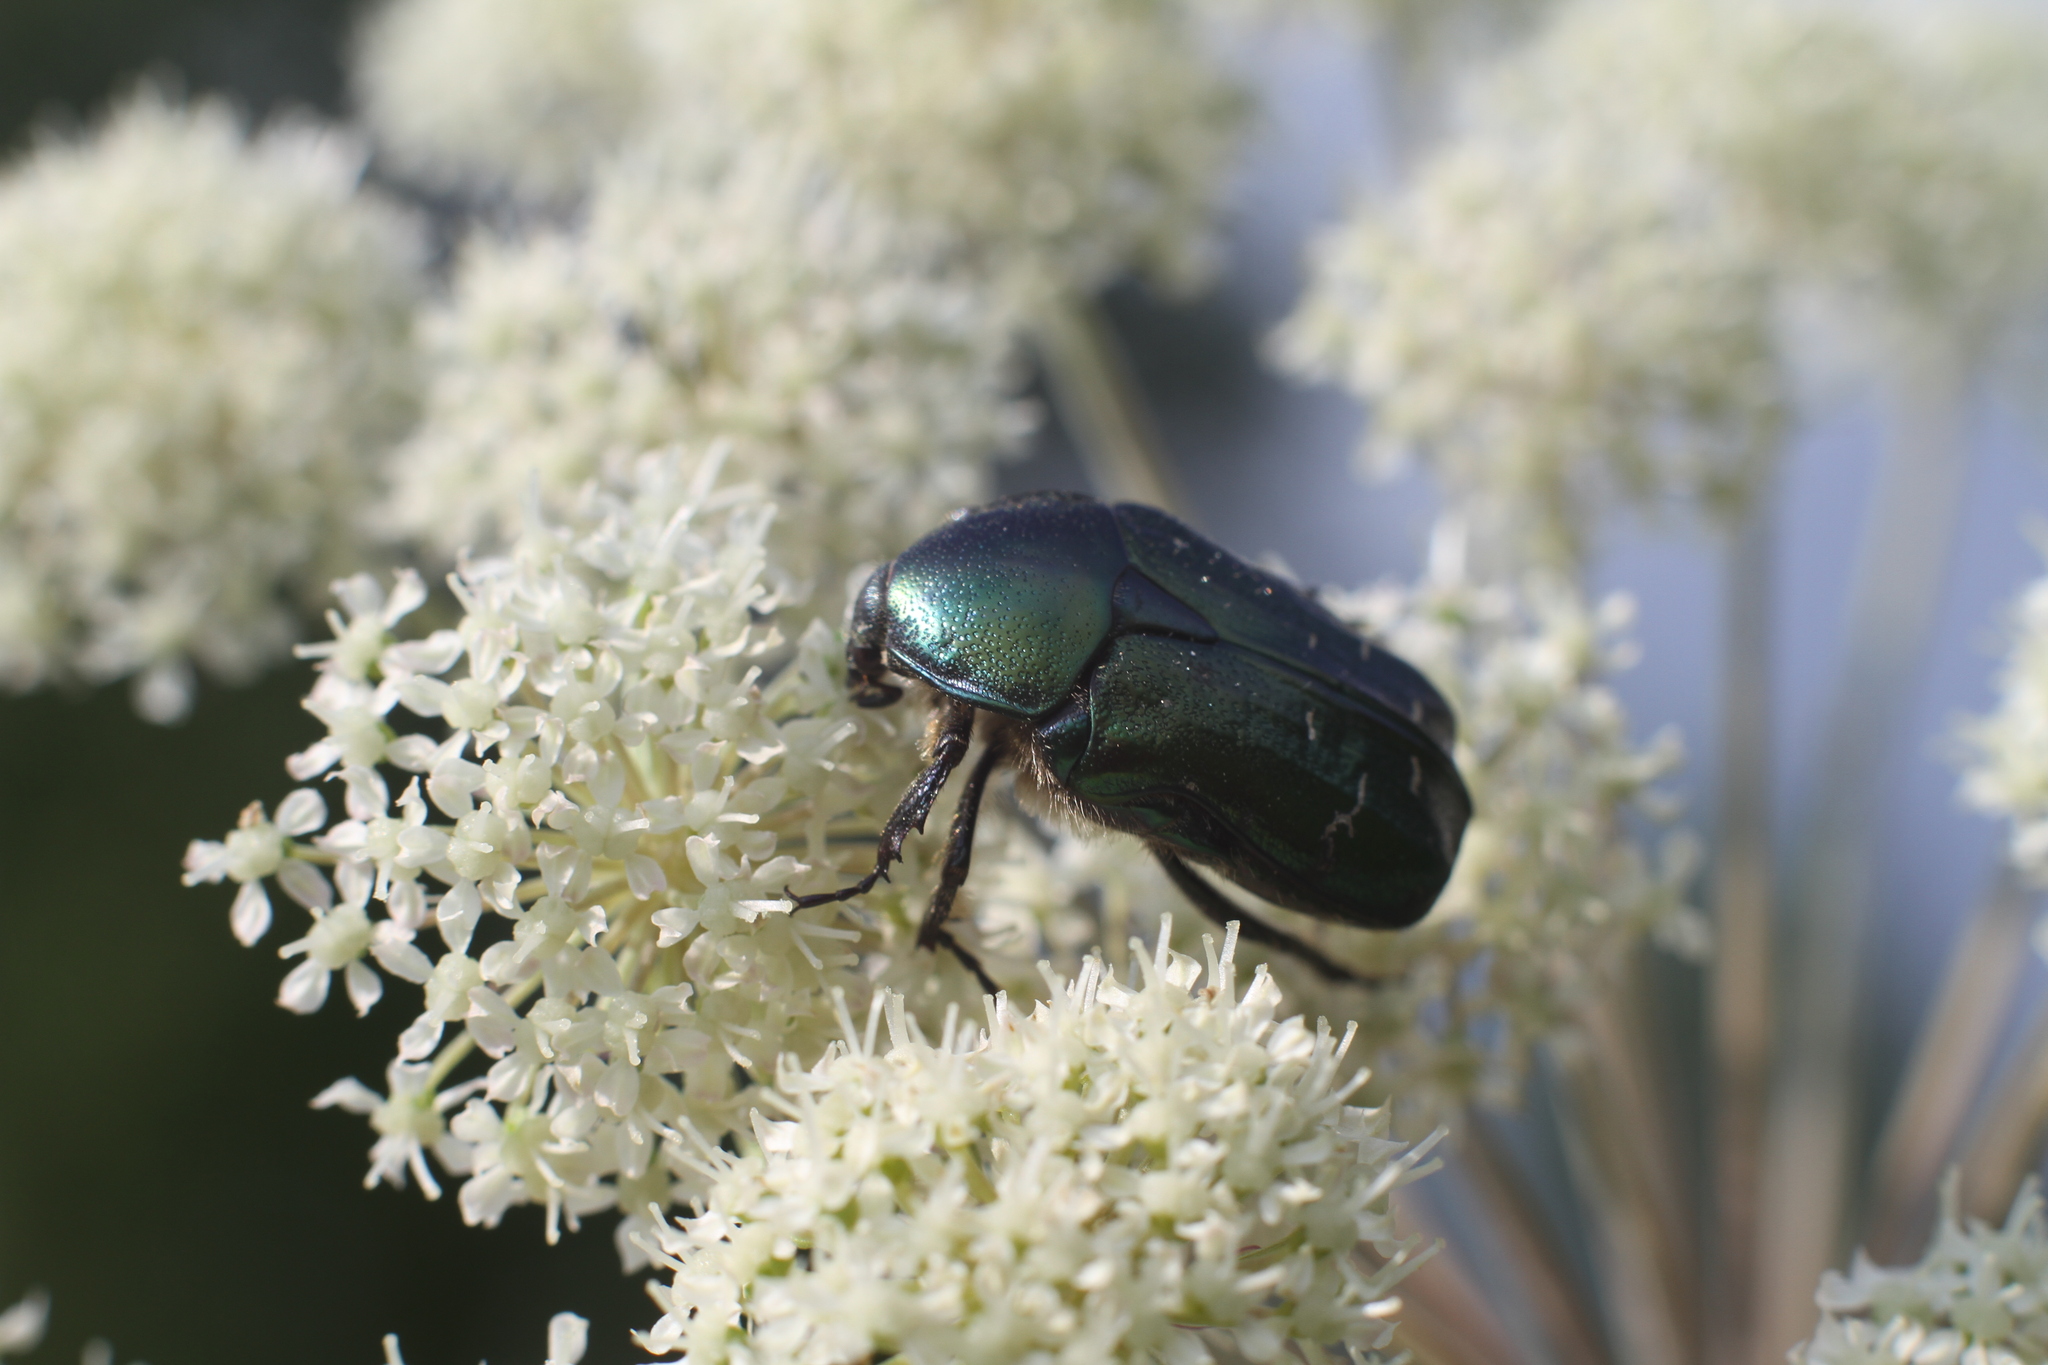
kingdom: Animalia
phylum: Arthropoda
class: Insecta
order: Coleoptera
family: Scarabaeidae
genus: Cetonia
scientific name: Cetonia aurata
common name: Rose chafer
